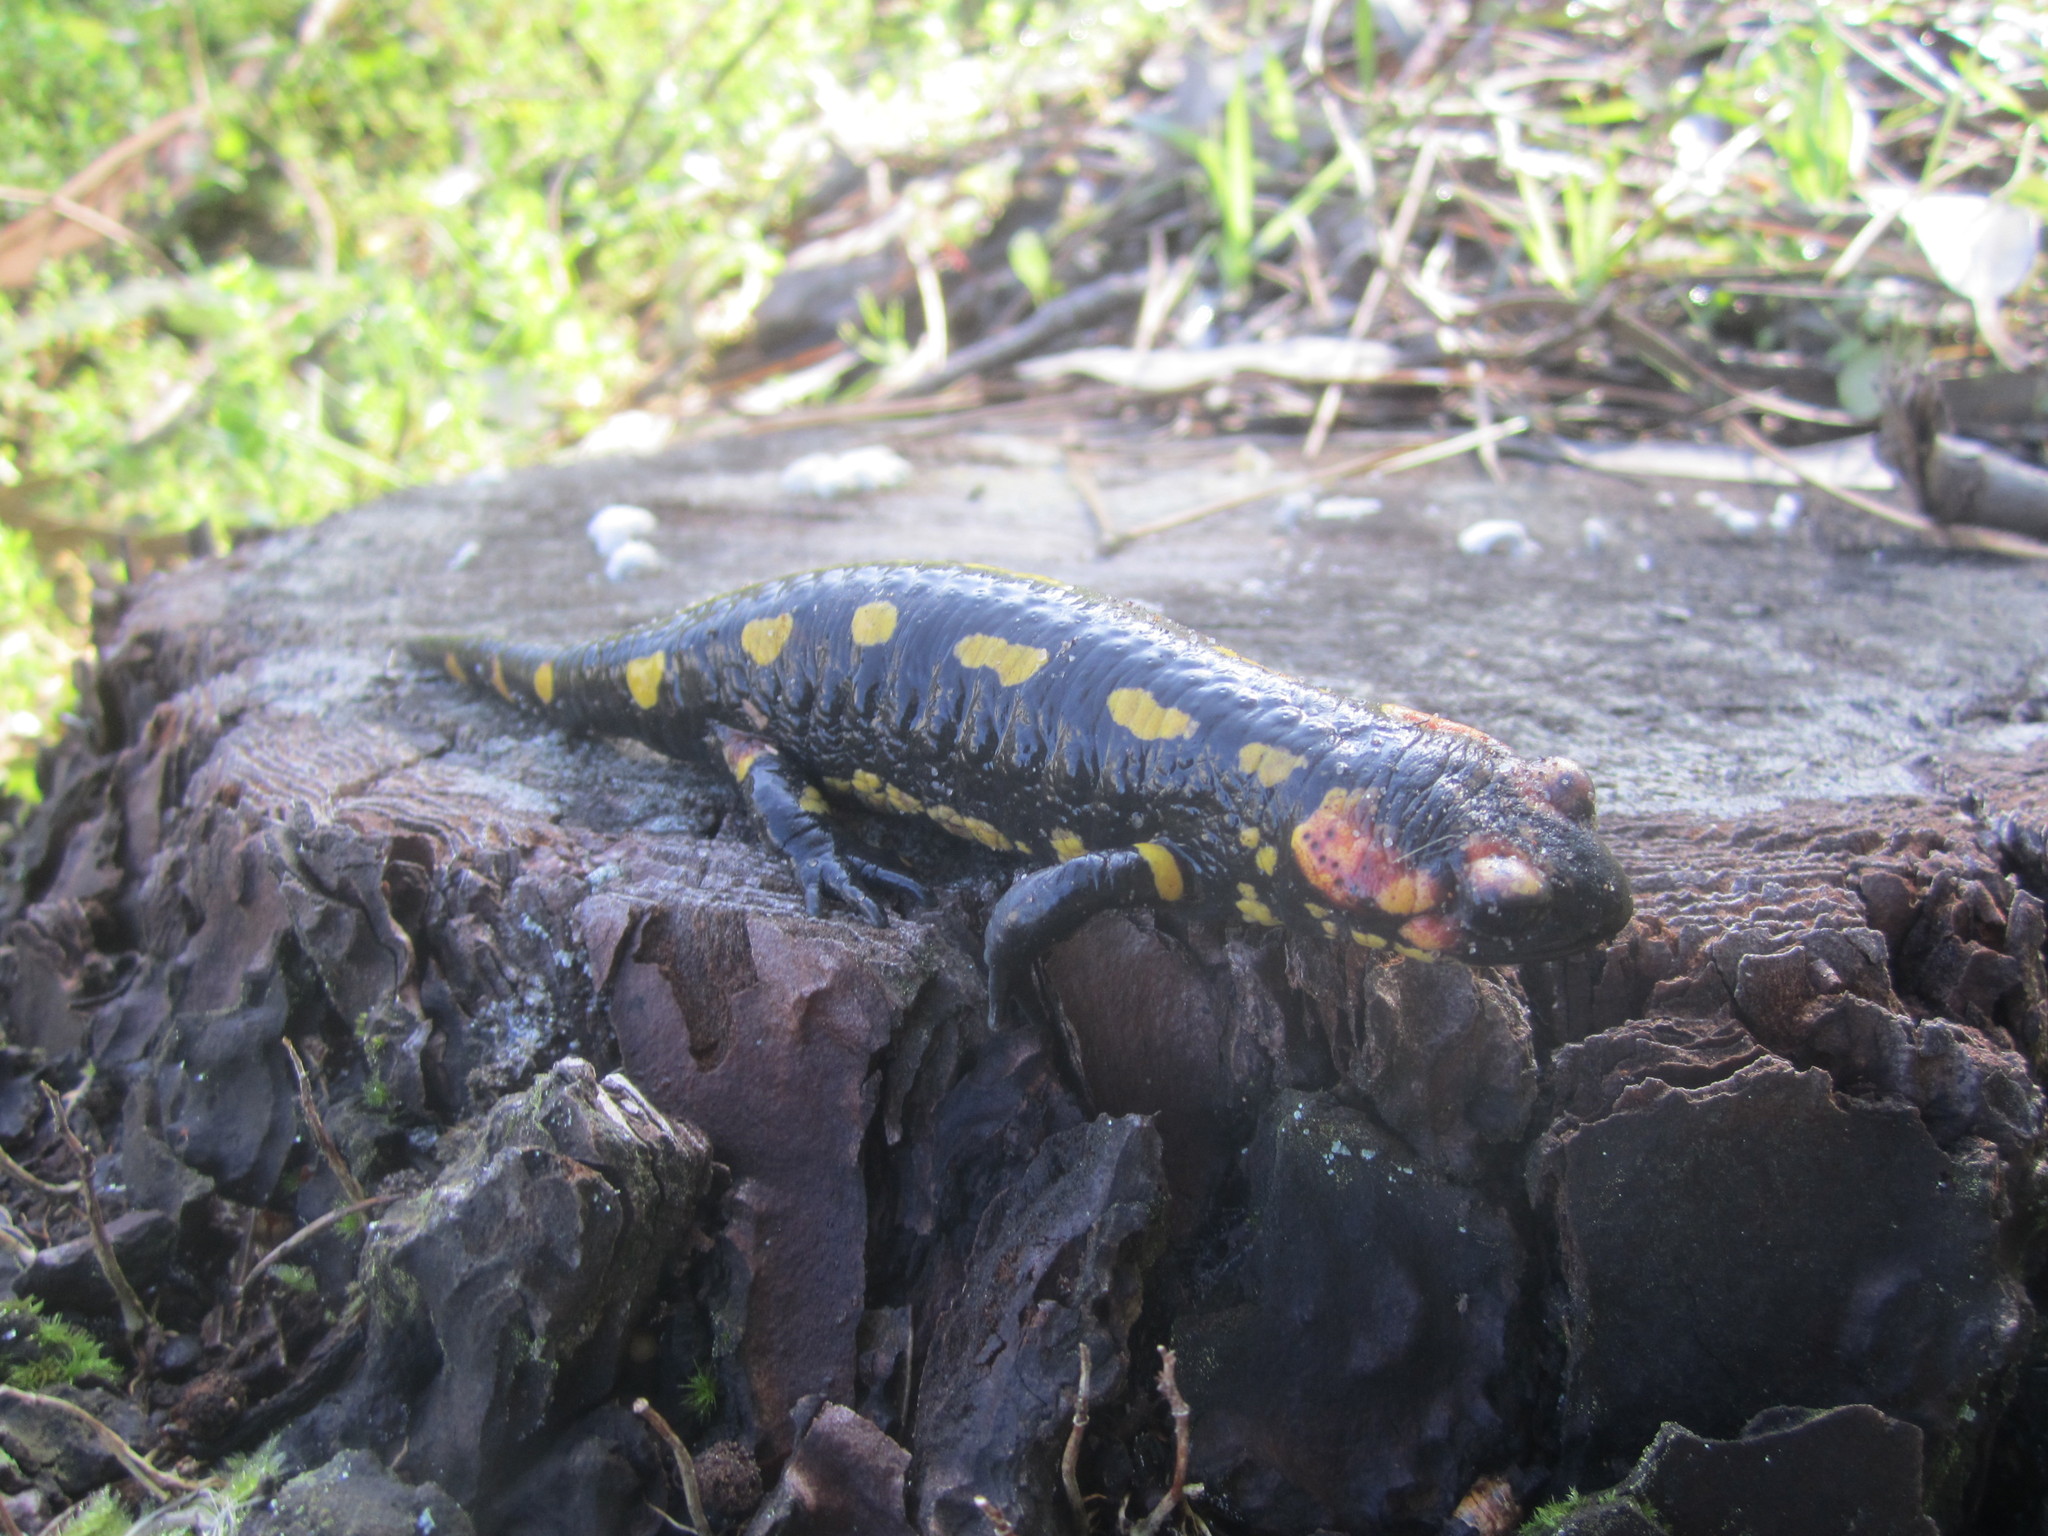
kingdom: Animalia
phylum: Chordata
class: Amphibia
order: Caudata
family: Salamandridae
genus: Salamandra
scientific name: Salamandra salamandra
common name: Fire salamander
